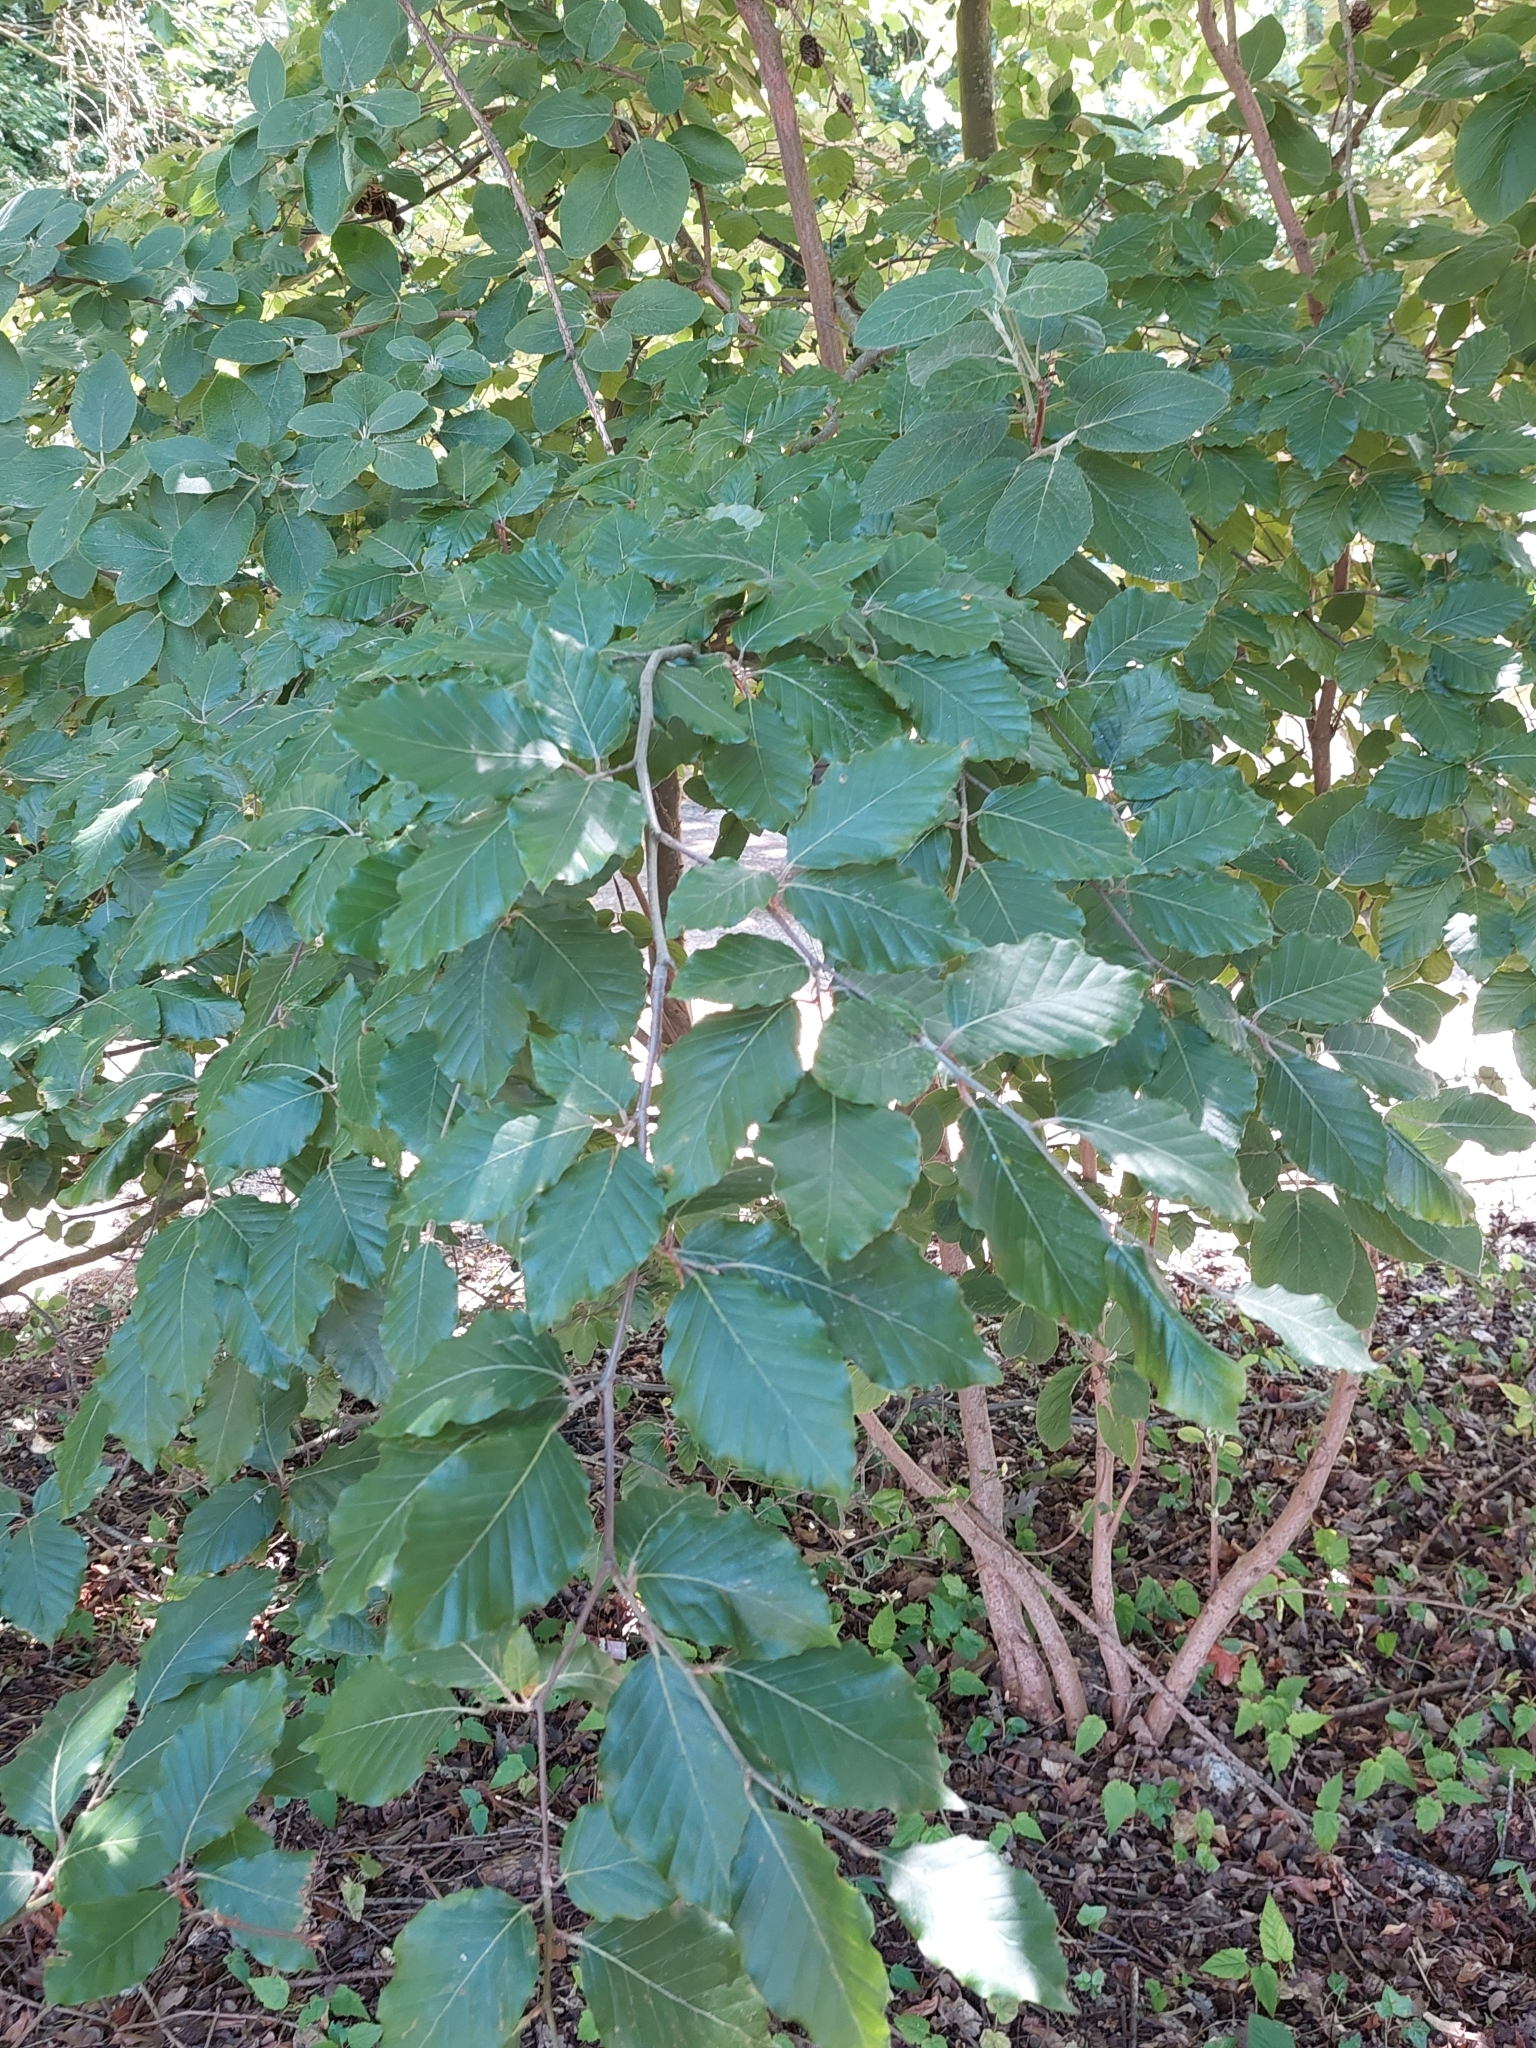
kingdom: Plantae
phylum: Tracheophyta
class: Magnoliopsida
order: Fagales
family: Fagaceae
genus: Fagus
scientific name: Fagus sylvatica
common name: Beech
